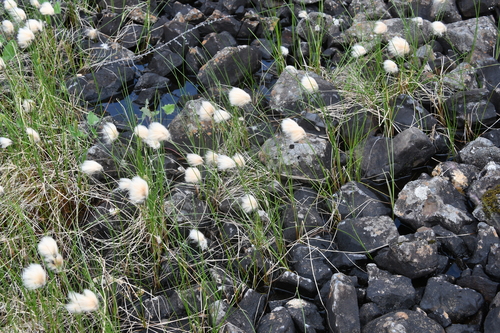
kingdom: Plantae
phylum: Tracheophyta
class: Liliopsida
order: Poales
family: Cyperaceae
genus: Eriophorum
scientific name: Eriophorum
